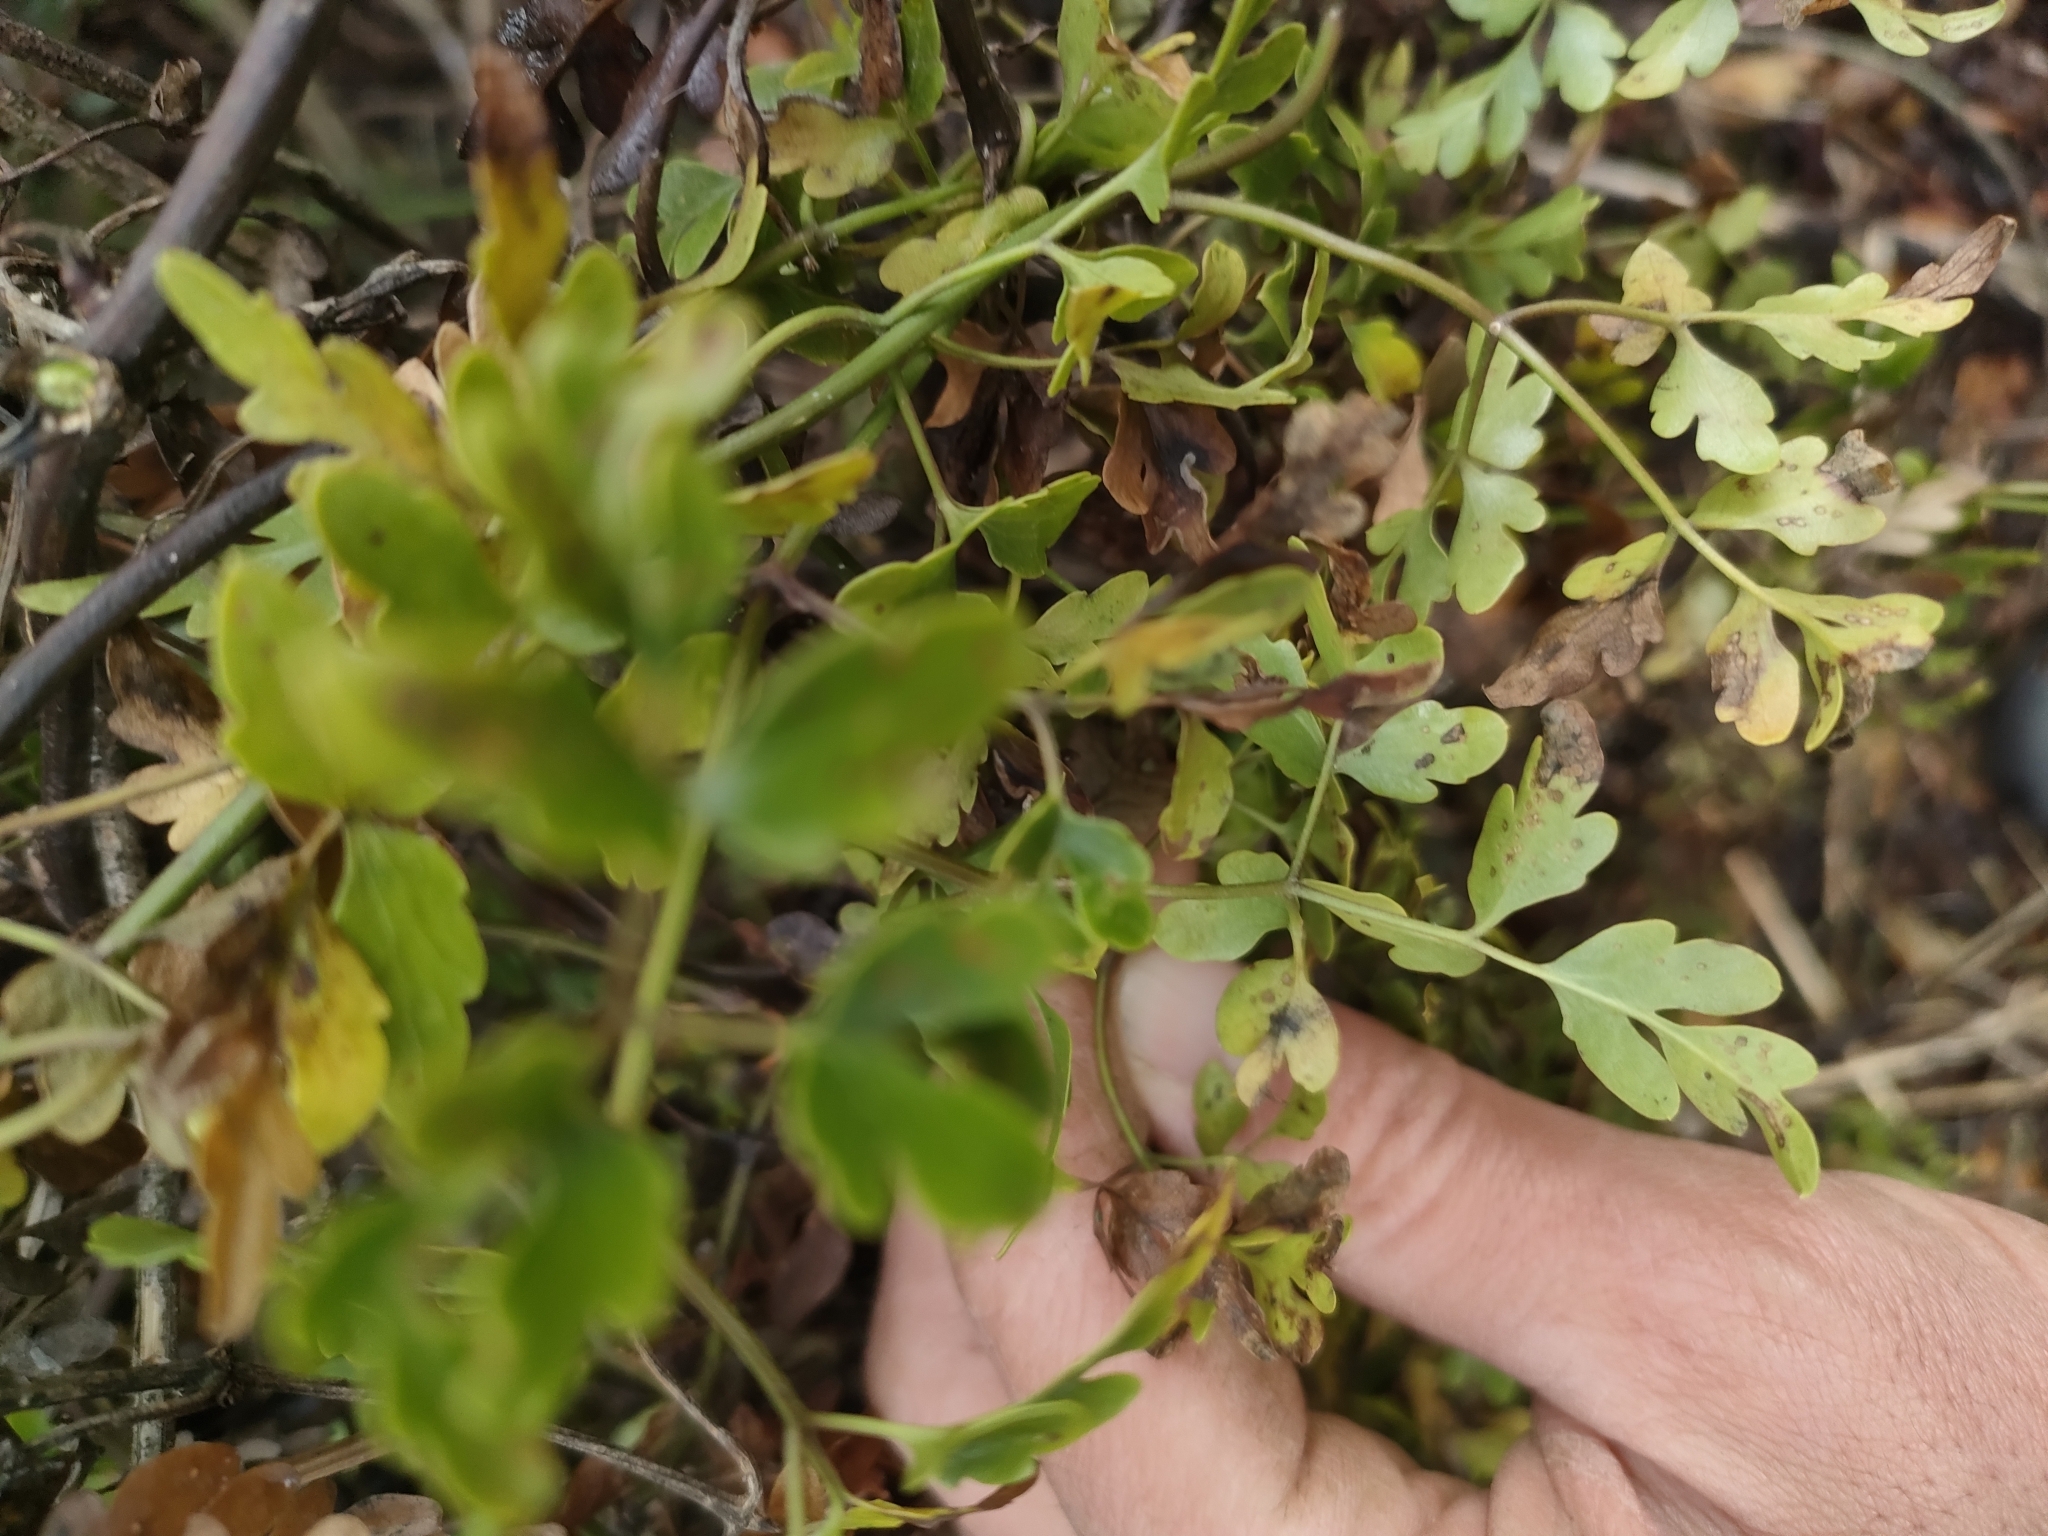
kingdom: Plantae
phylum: Tracheophyta
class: Magnoliopsida
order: Ranunculales
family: Ranunculaceae
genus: Clematis
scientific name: Clematis forsteri
